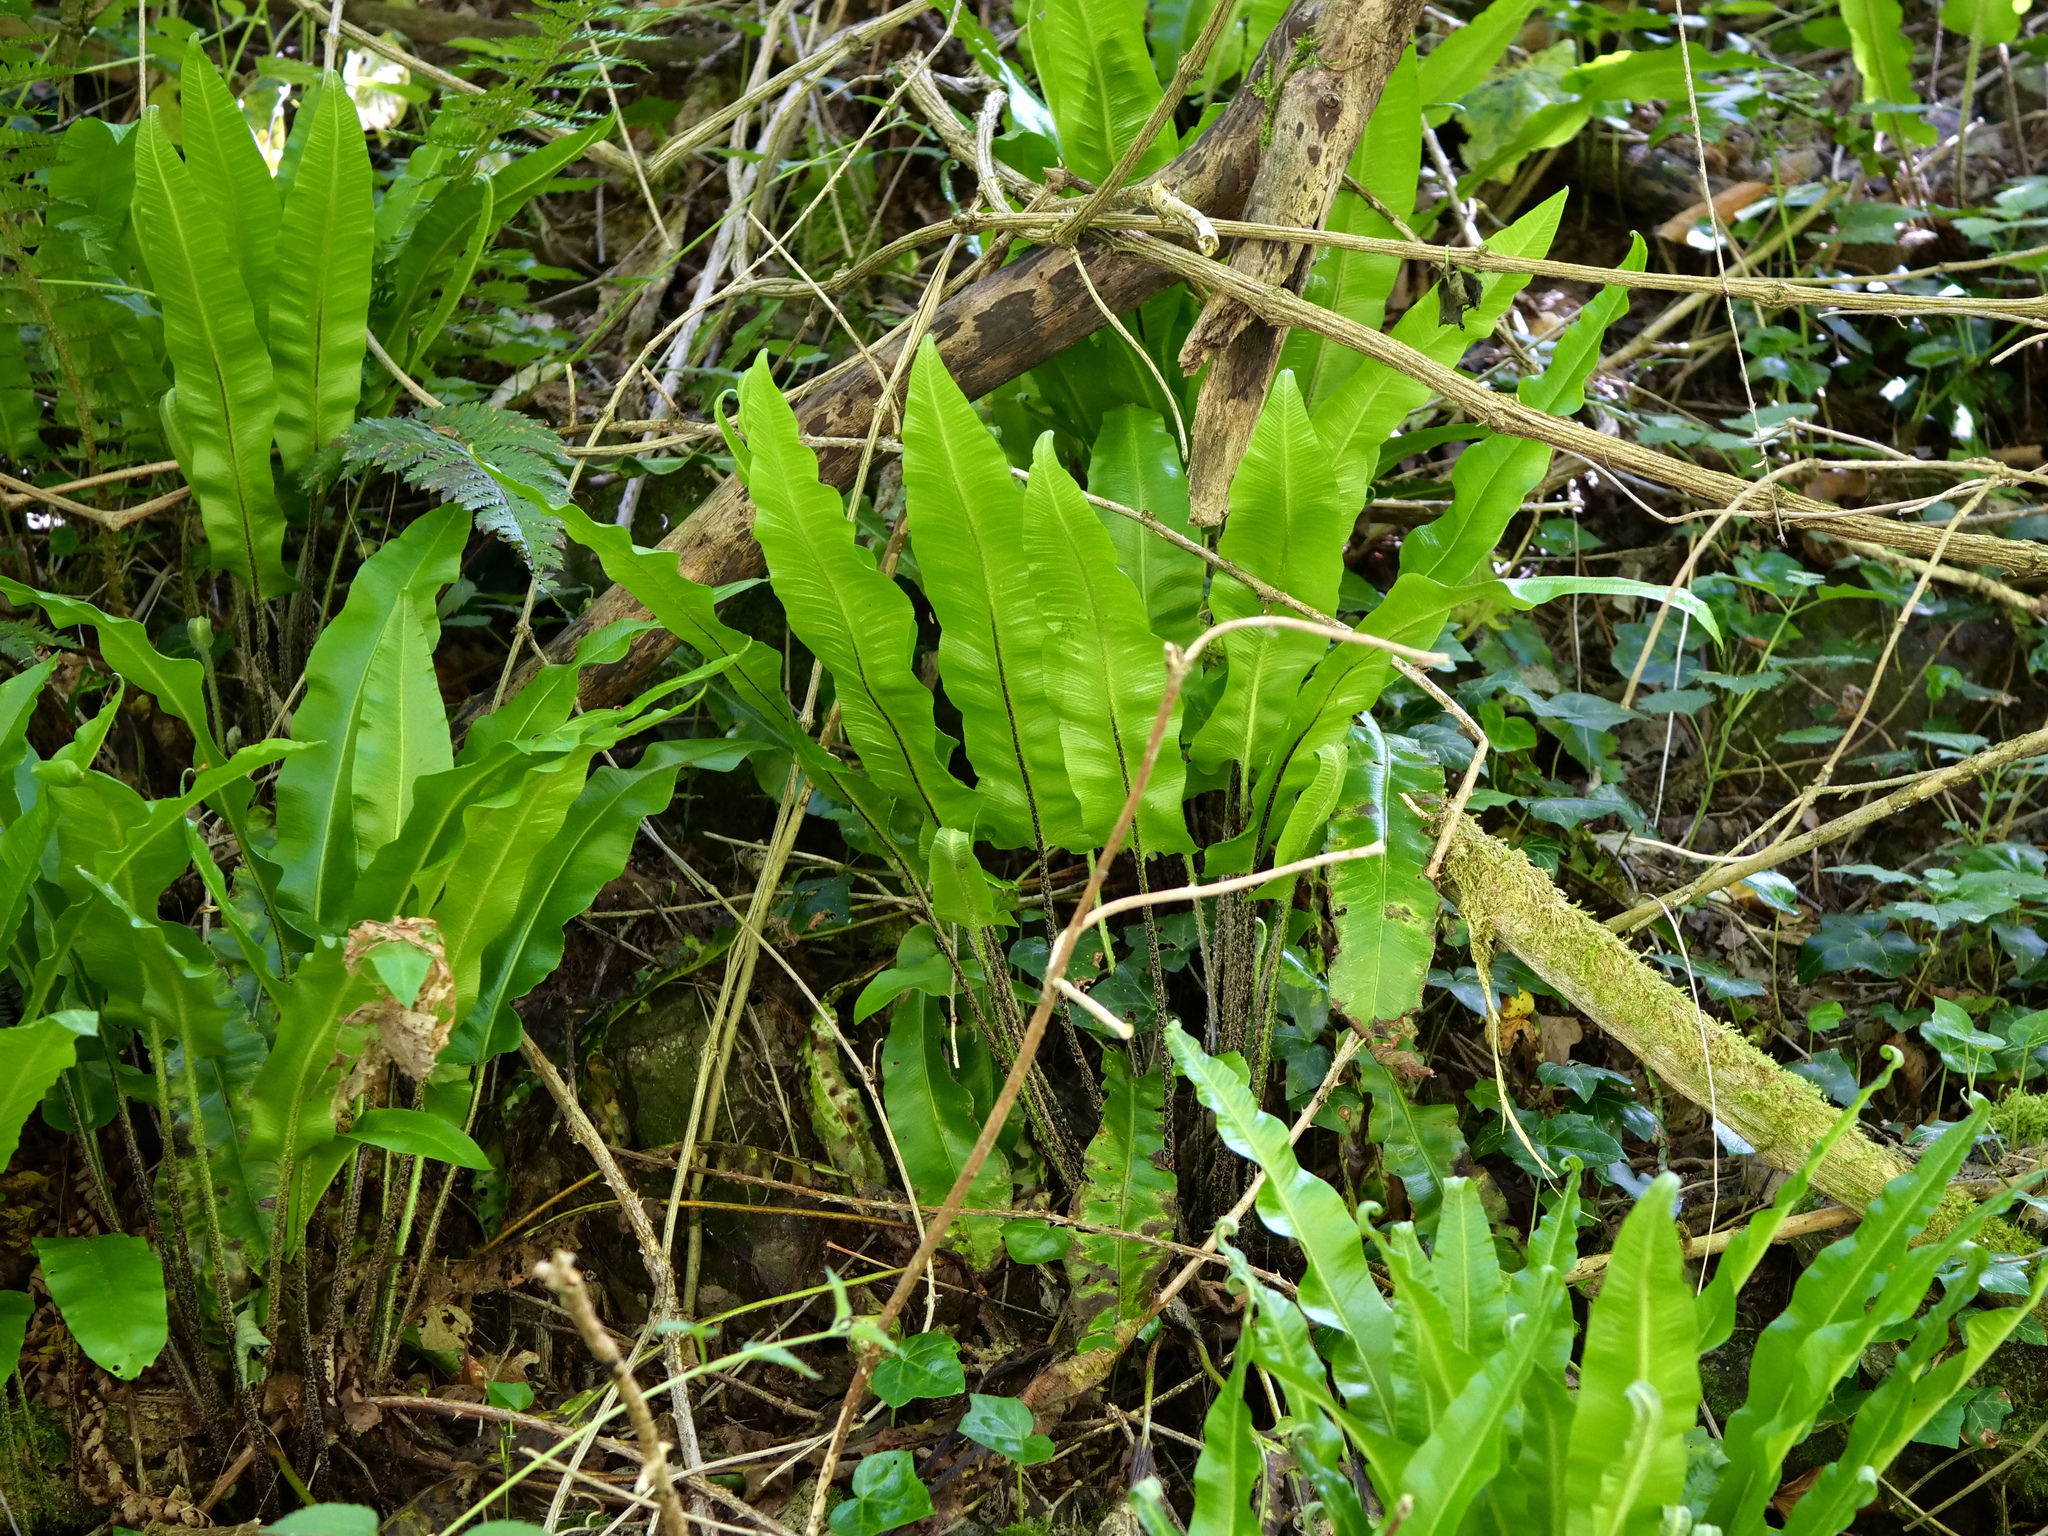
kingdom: Plantae
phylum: Tracheophyta
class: Polypodiopsida
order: Polypodiales
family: Aspleniaceae
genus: Asplenium
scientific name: Asplenium scolopendrium
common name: Hart's-tongue fern
